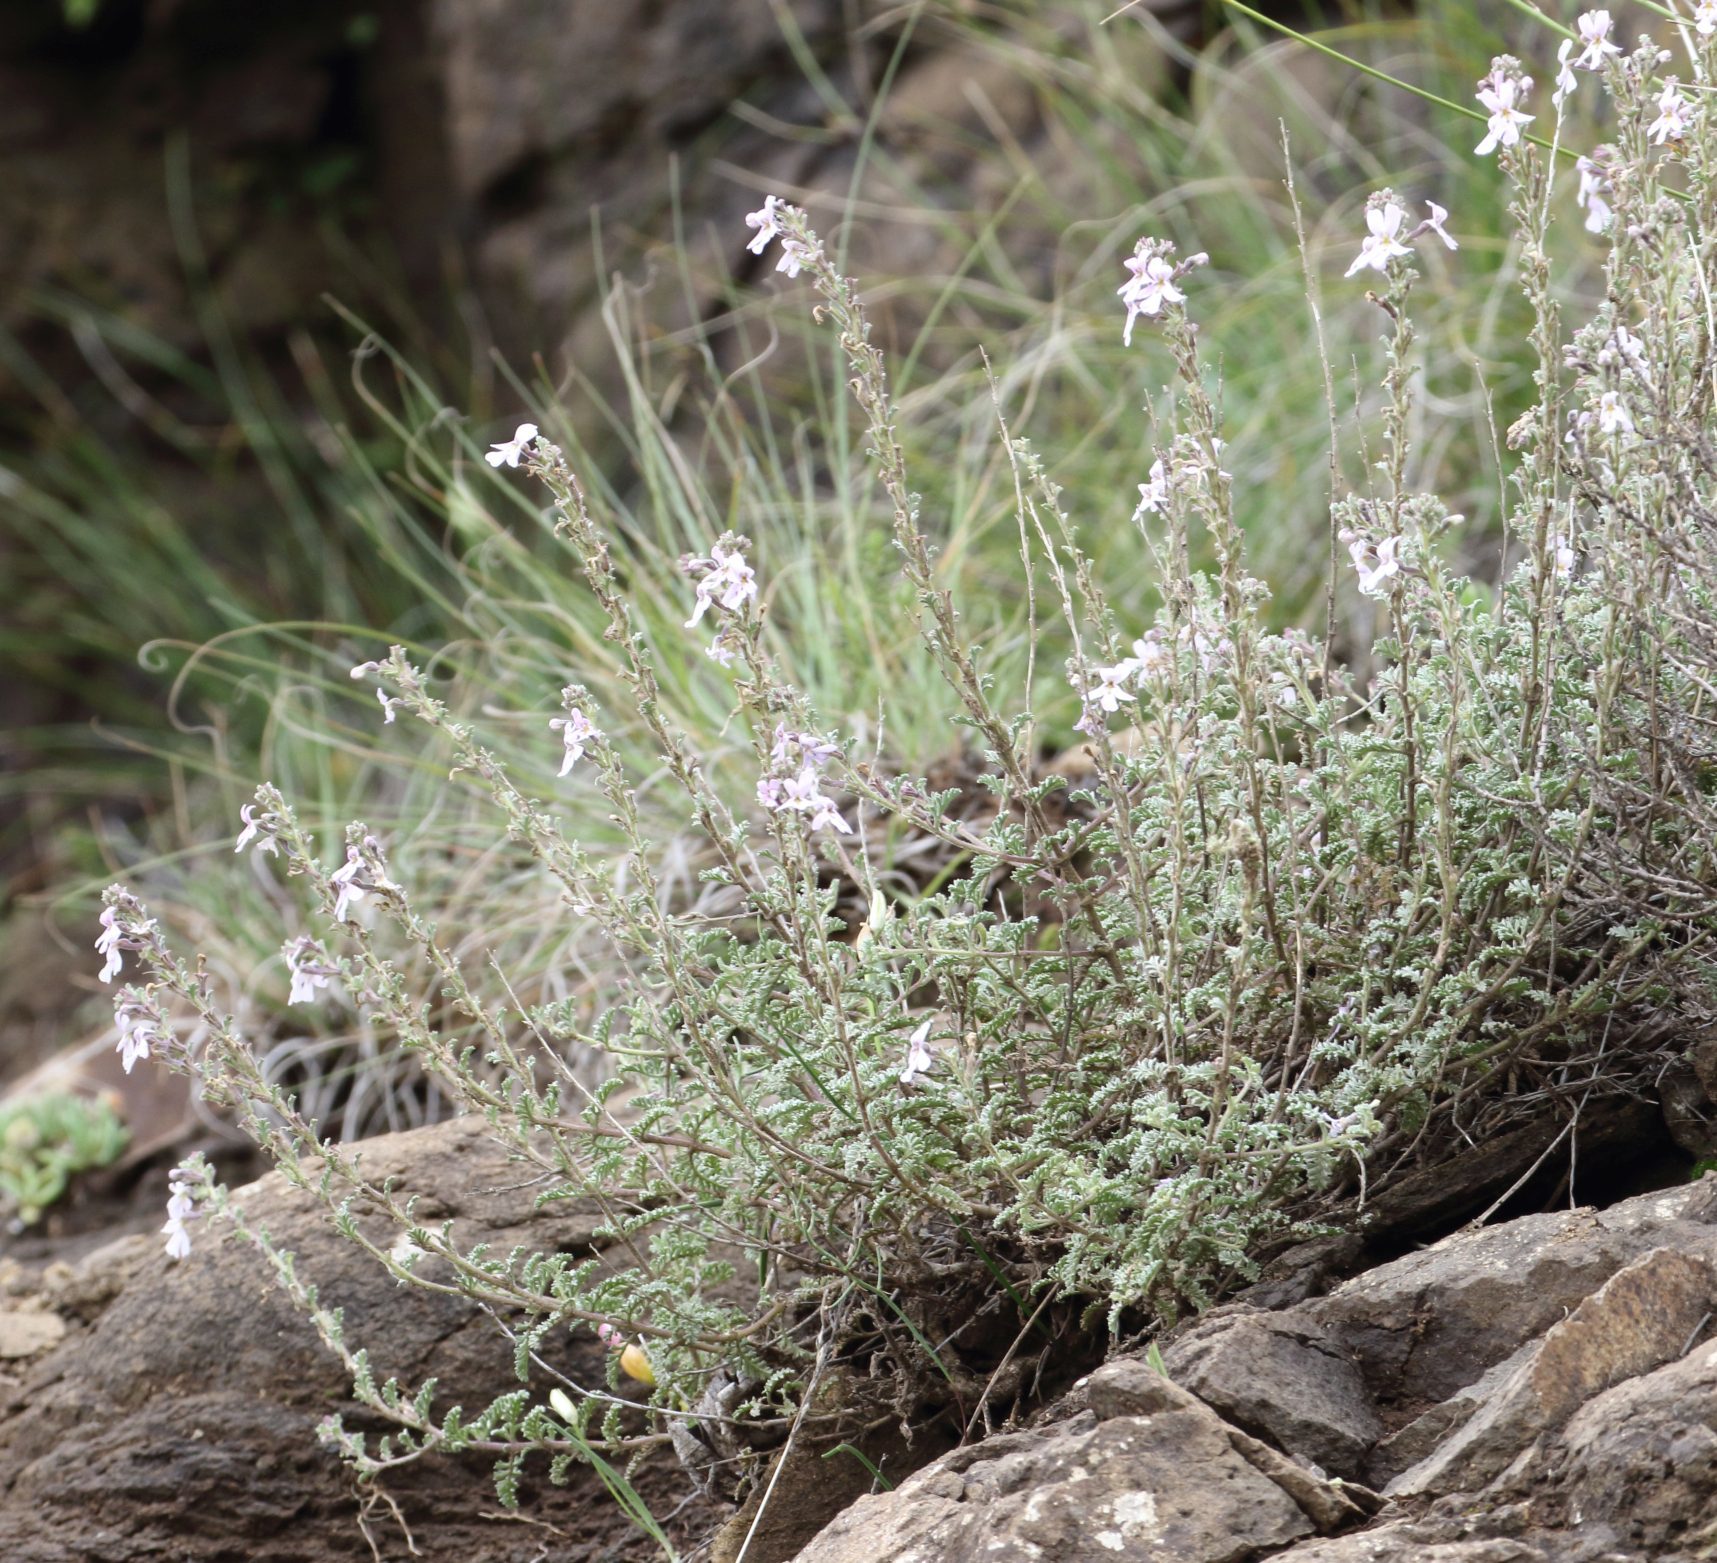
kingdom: Plantae
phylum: Tracheophyta
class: Magnoliopsida
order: Lamiales
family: Scrophulariaceae
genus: Jamesbrittenia
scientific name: Jamesbrittenia pristisepala
